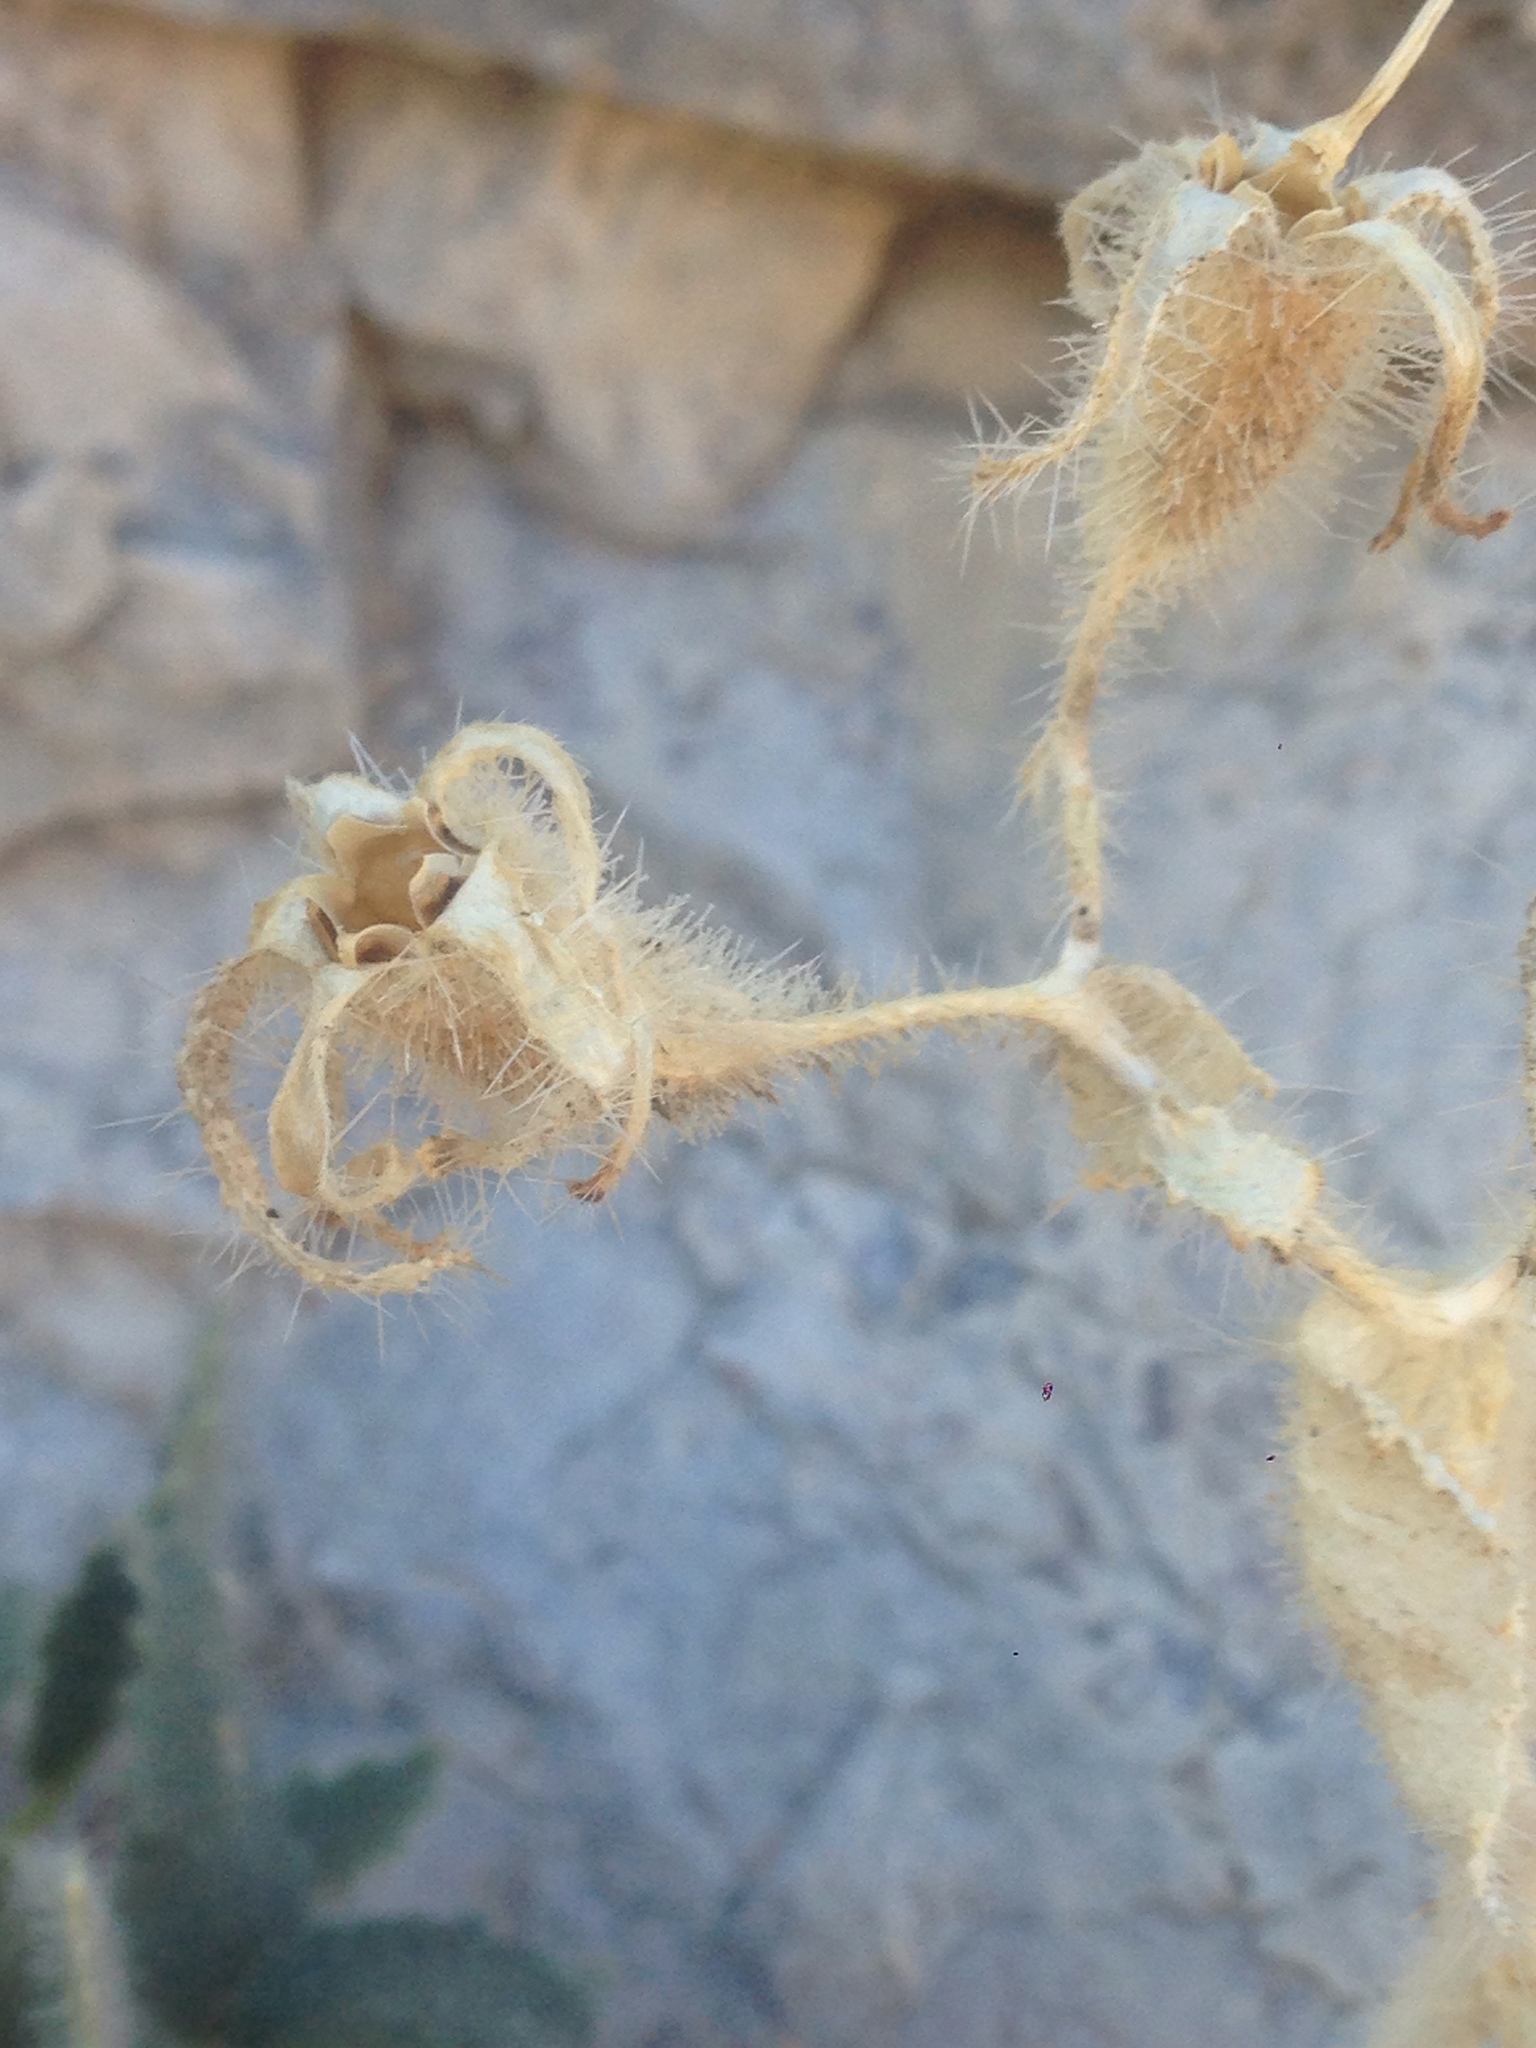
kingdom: Plantae
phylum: Tracheophyta
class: Magnoliopsida
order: Cornales
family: Loasaceae
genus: Eucnide
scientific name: Eucnide urens
